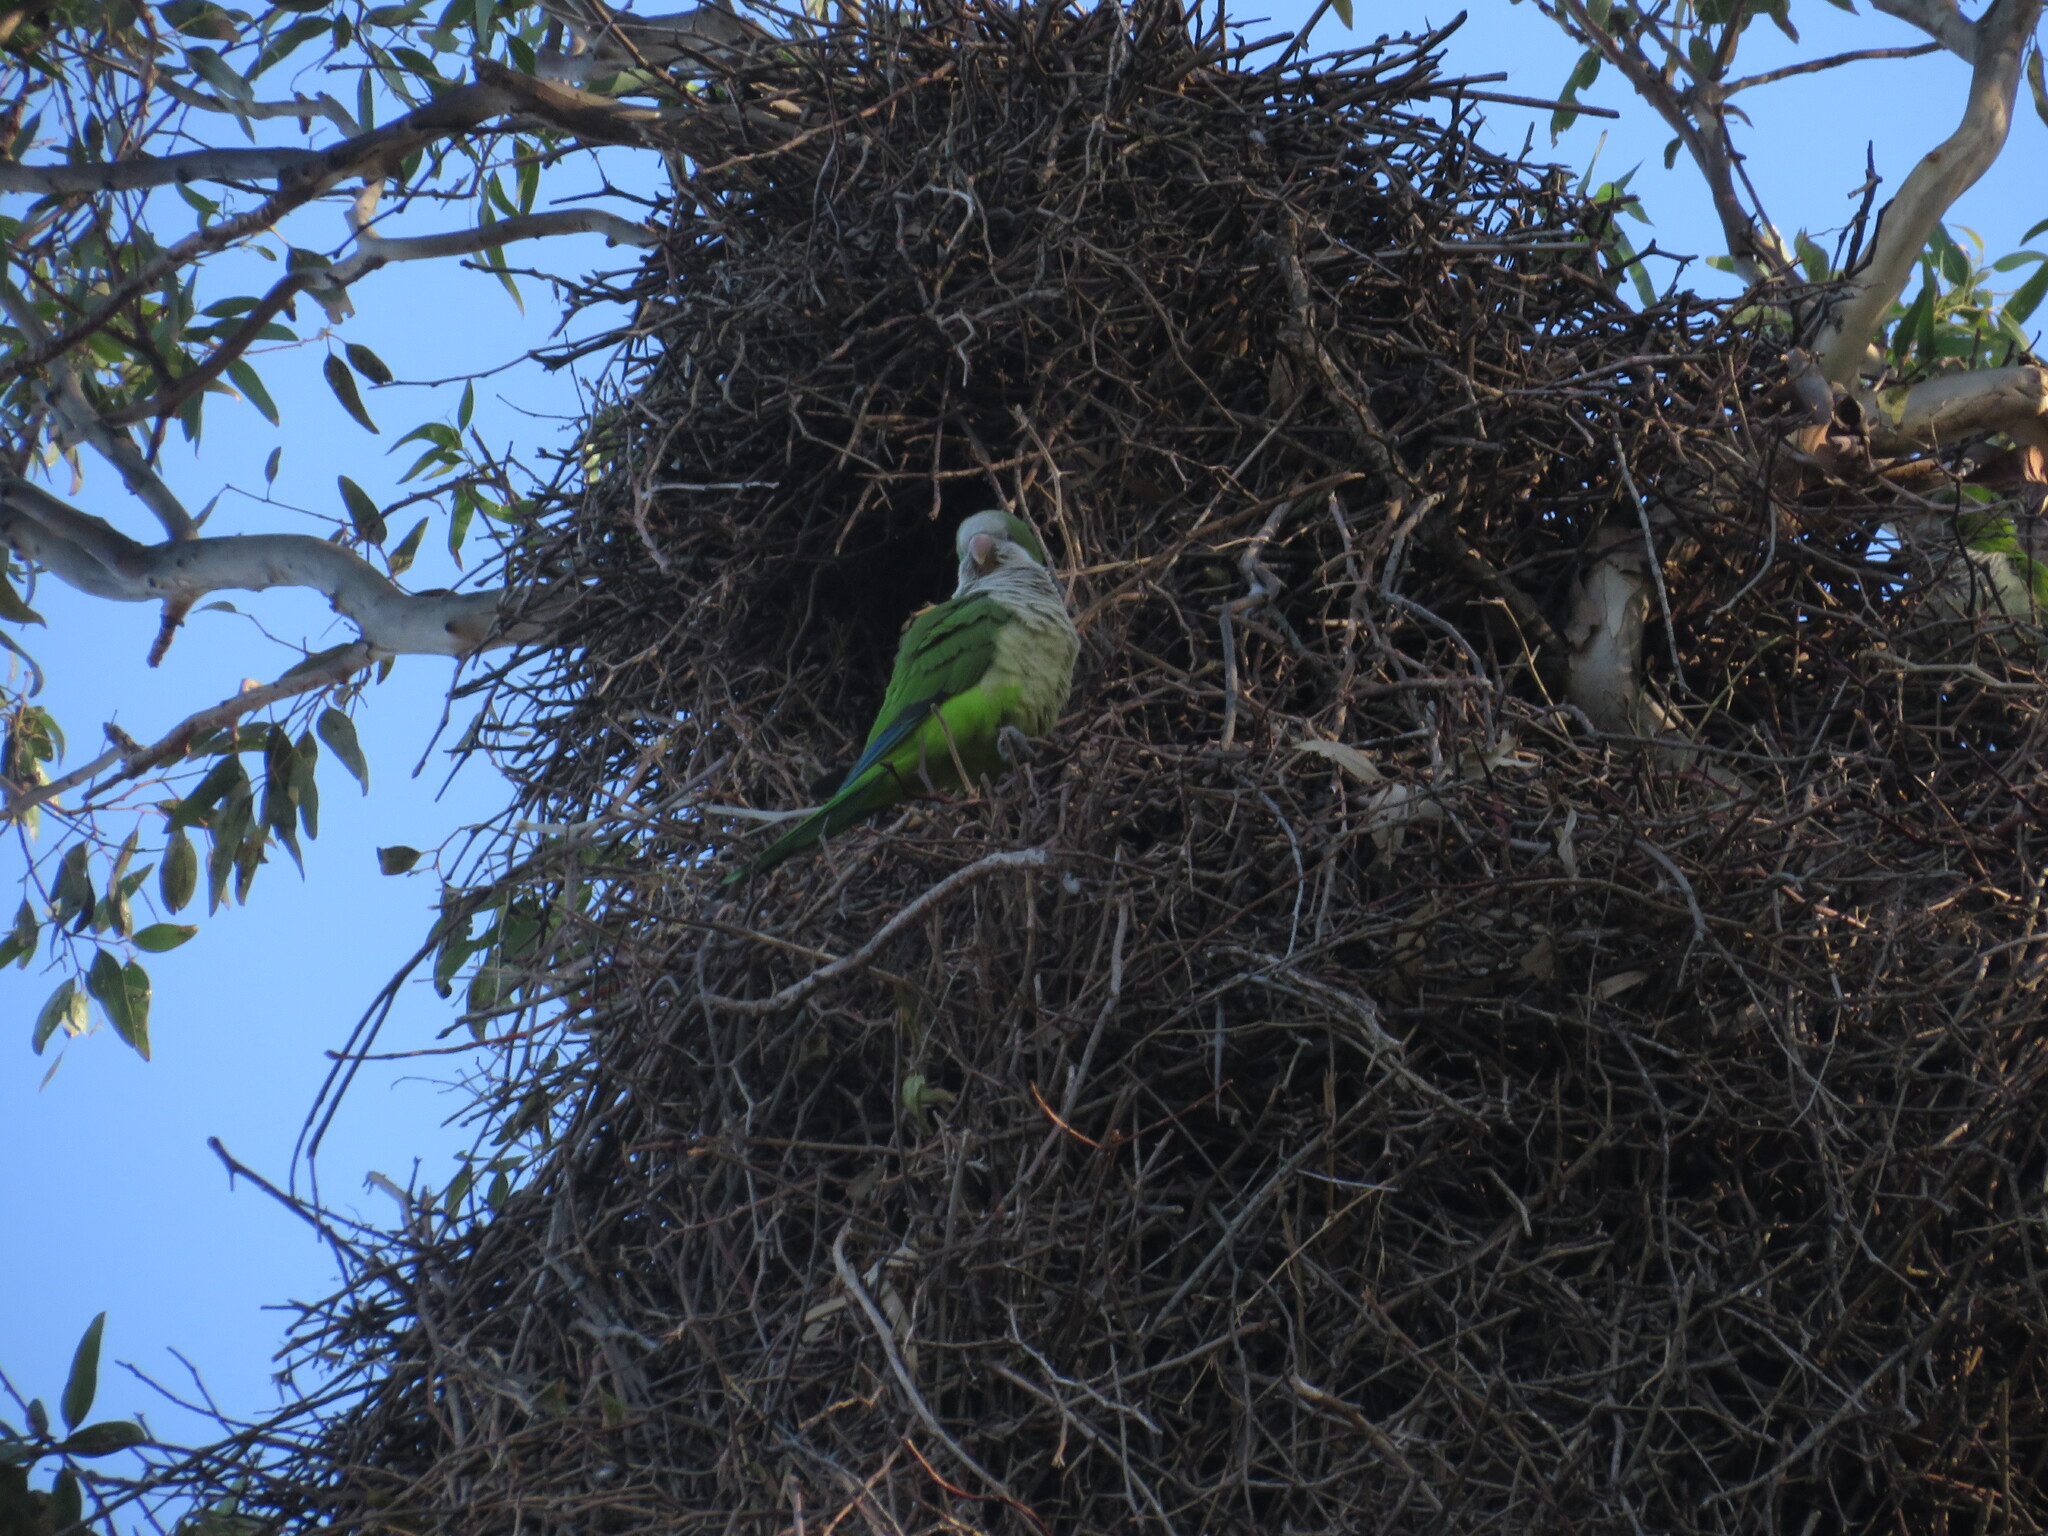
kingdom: Animalia
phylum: Chordata
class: Aves
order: Psittaciformes
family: Psittacidae
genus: Myiopsitta
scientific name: Myiopsitta monachus
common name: Monk parakeet
